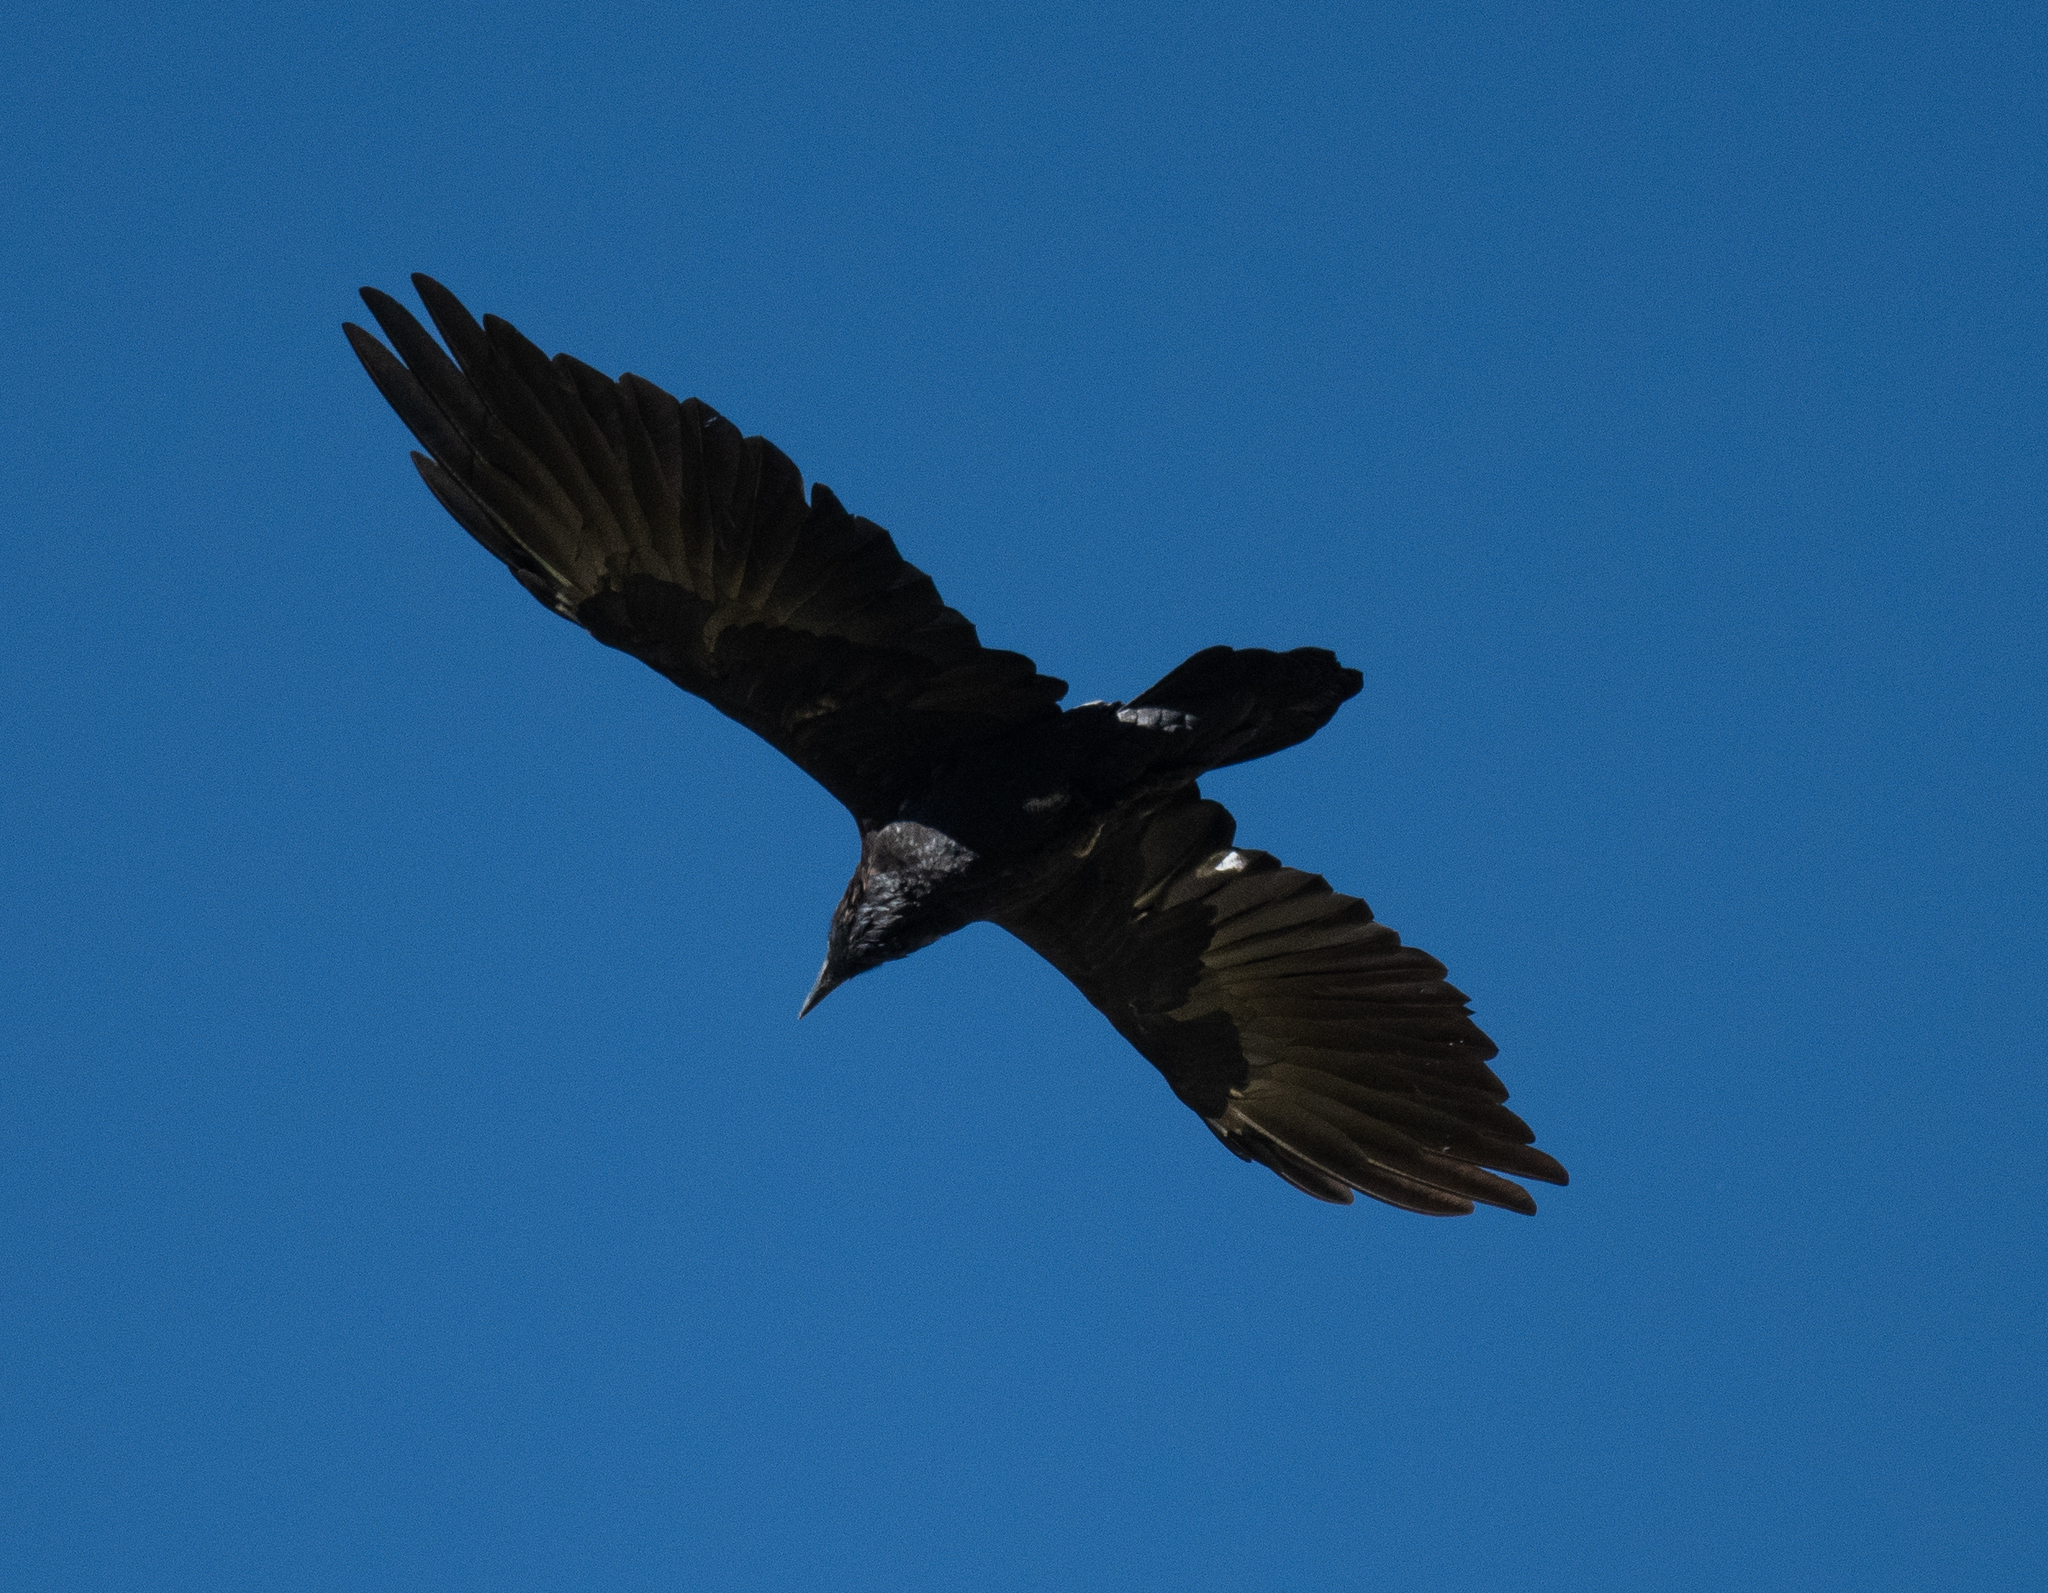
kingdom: Animalia
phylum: Chordata
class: Aves
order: Passeriformes
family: Corvidae
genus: Corvus
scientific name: Corvus corax
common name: Common raven
